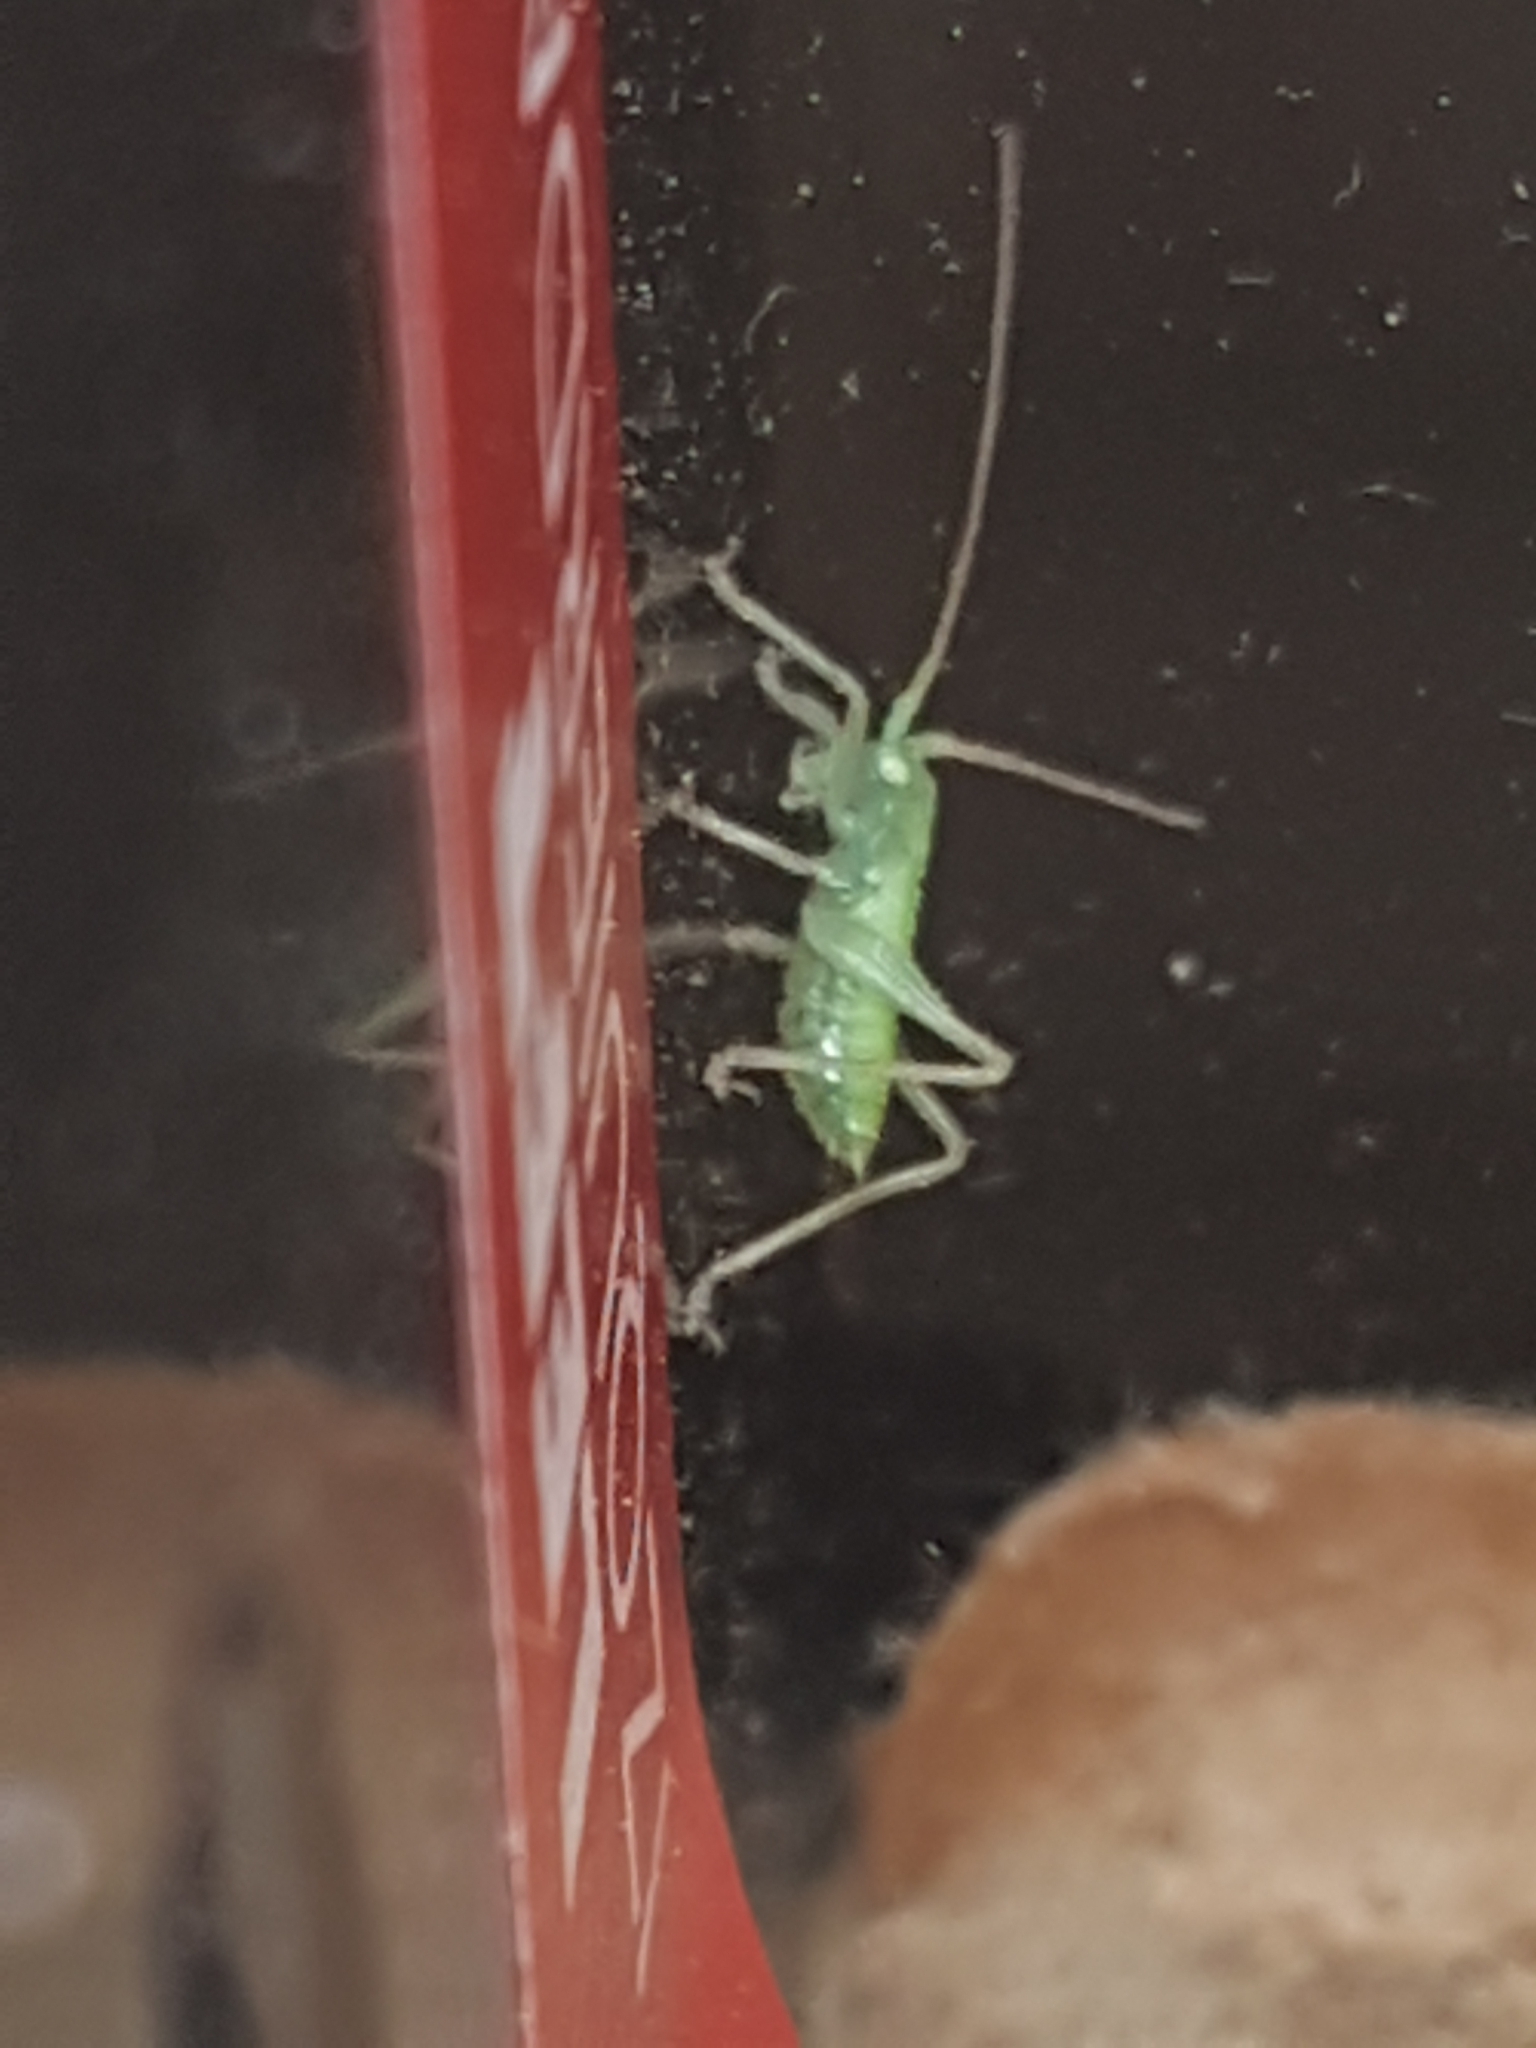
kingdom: Animalia
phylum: Arthropoda
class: Insecta
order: Orthoptera
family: Tettigoniidae
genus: Meconema
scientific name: Meconema thalassinum
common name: Oak bush-cricket
